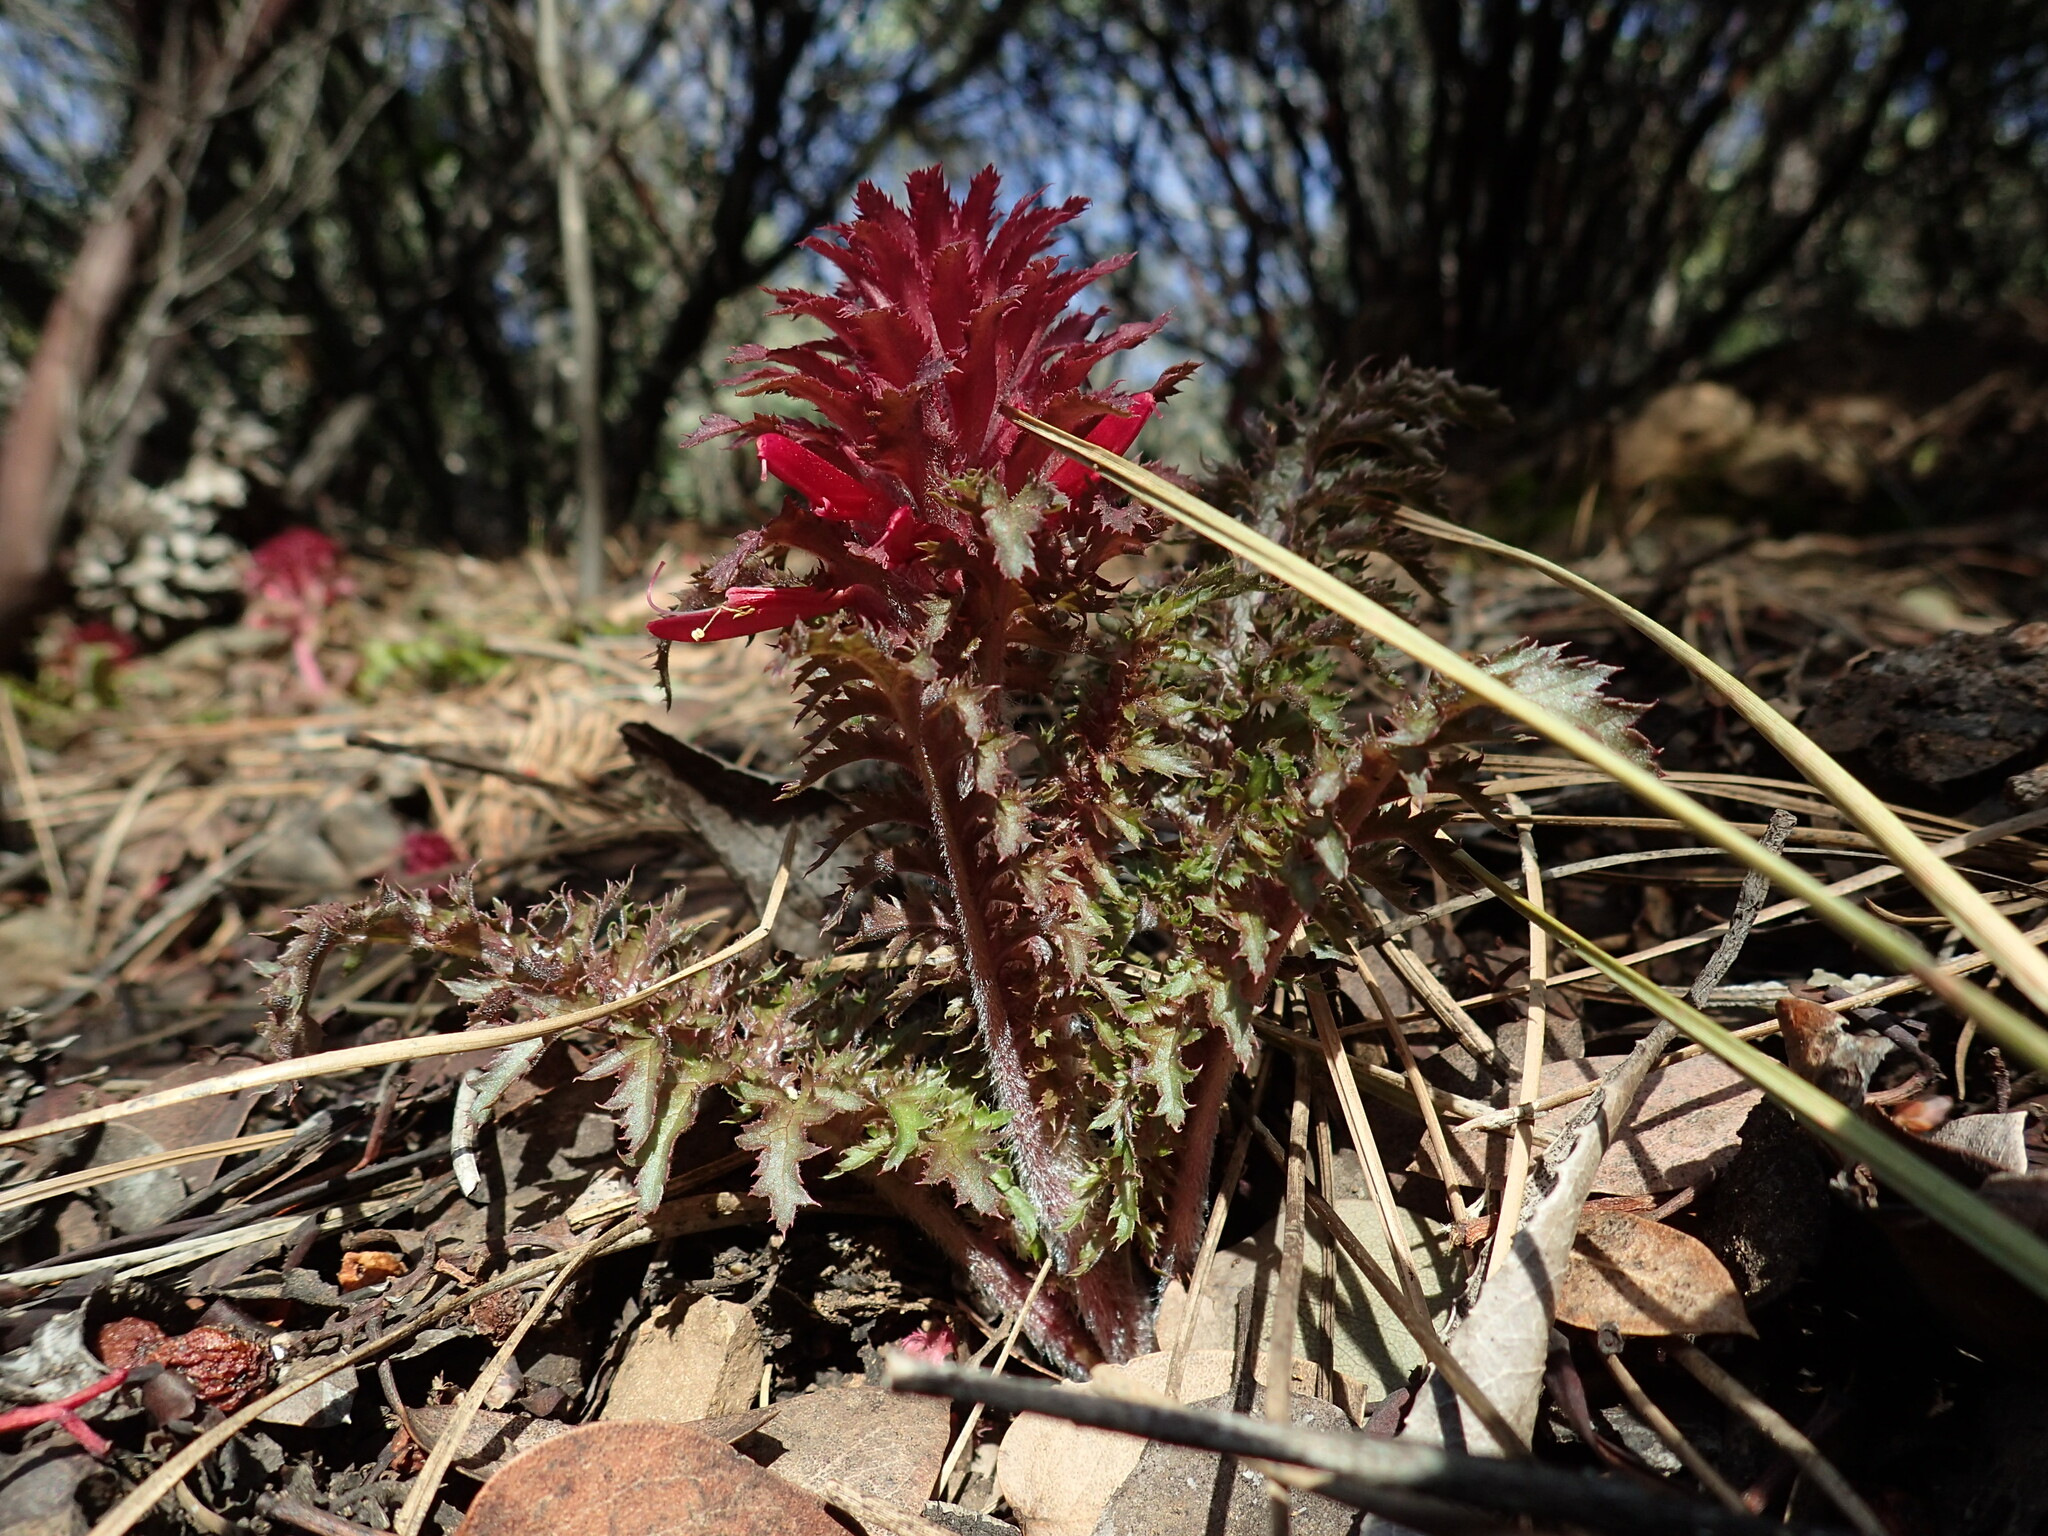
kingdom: Plantae
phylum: Tracheophyta
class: Magnoliopsida
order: Lamiales
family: Orobanchaceae
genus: Pedicularis
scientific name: Pedicularis densiflora
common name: Indian warrior
